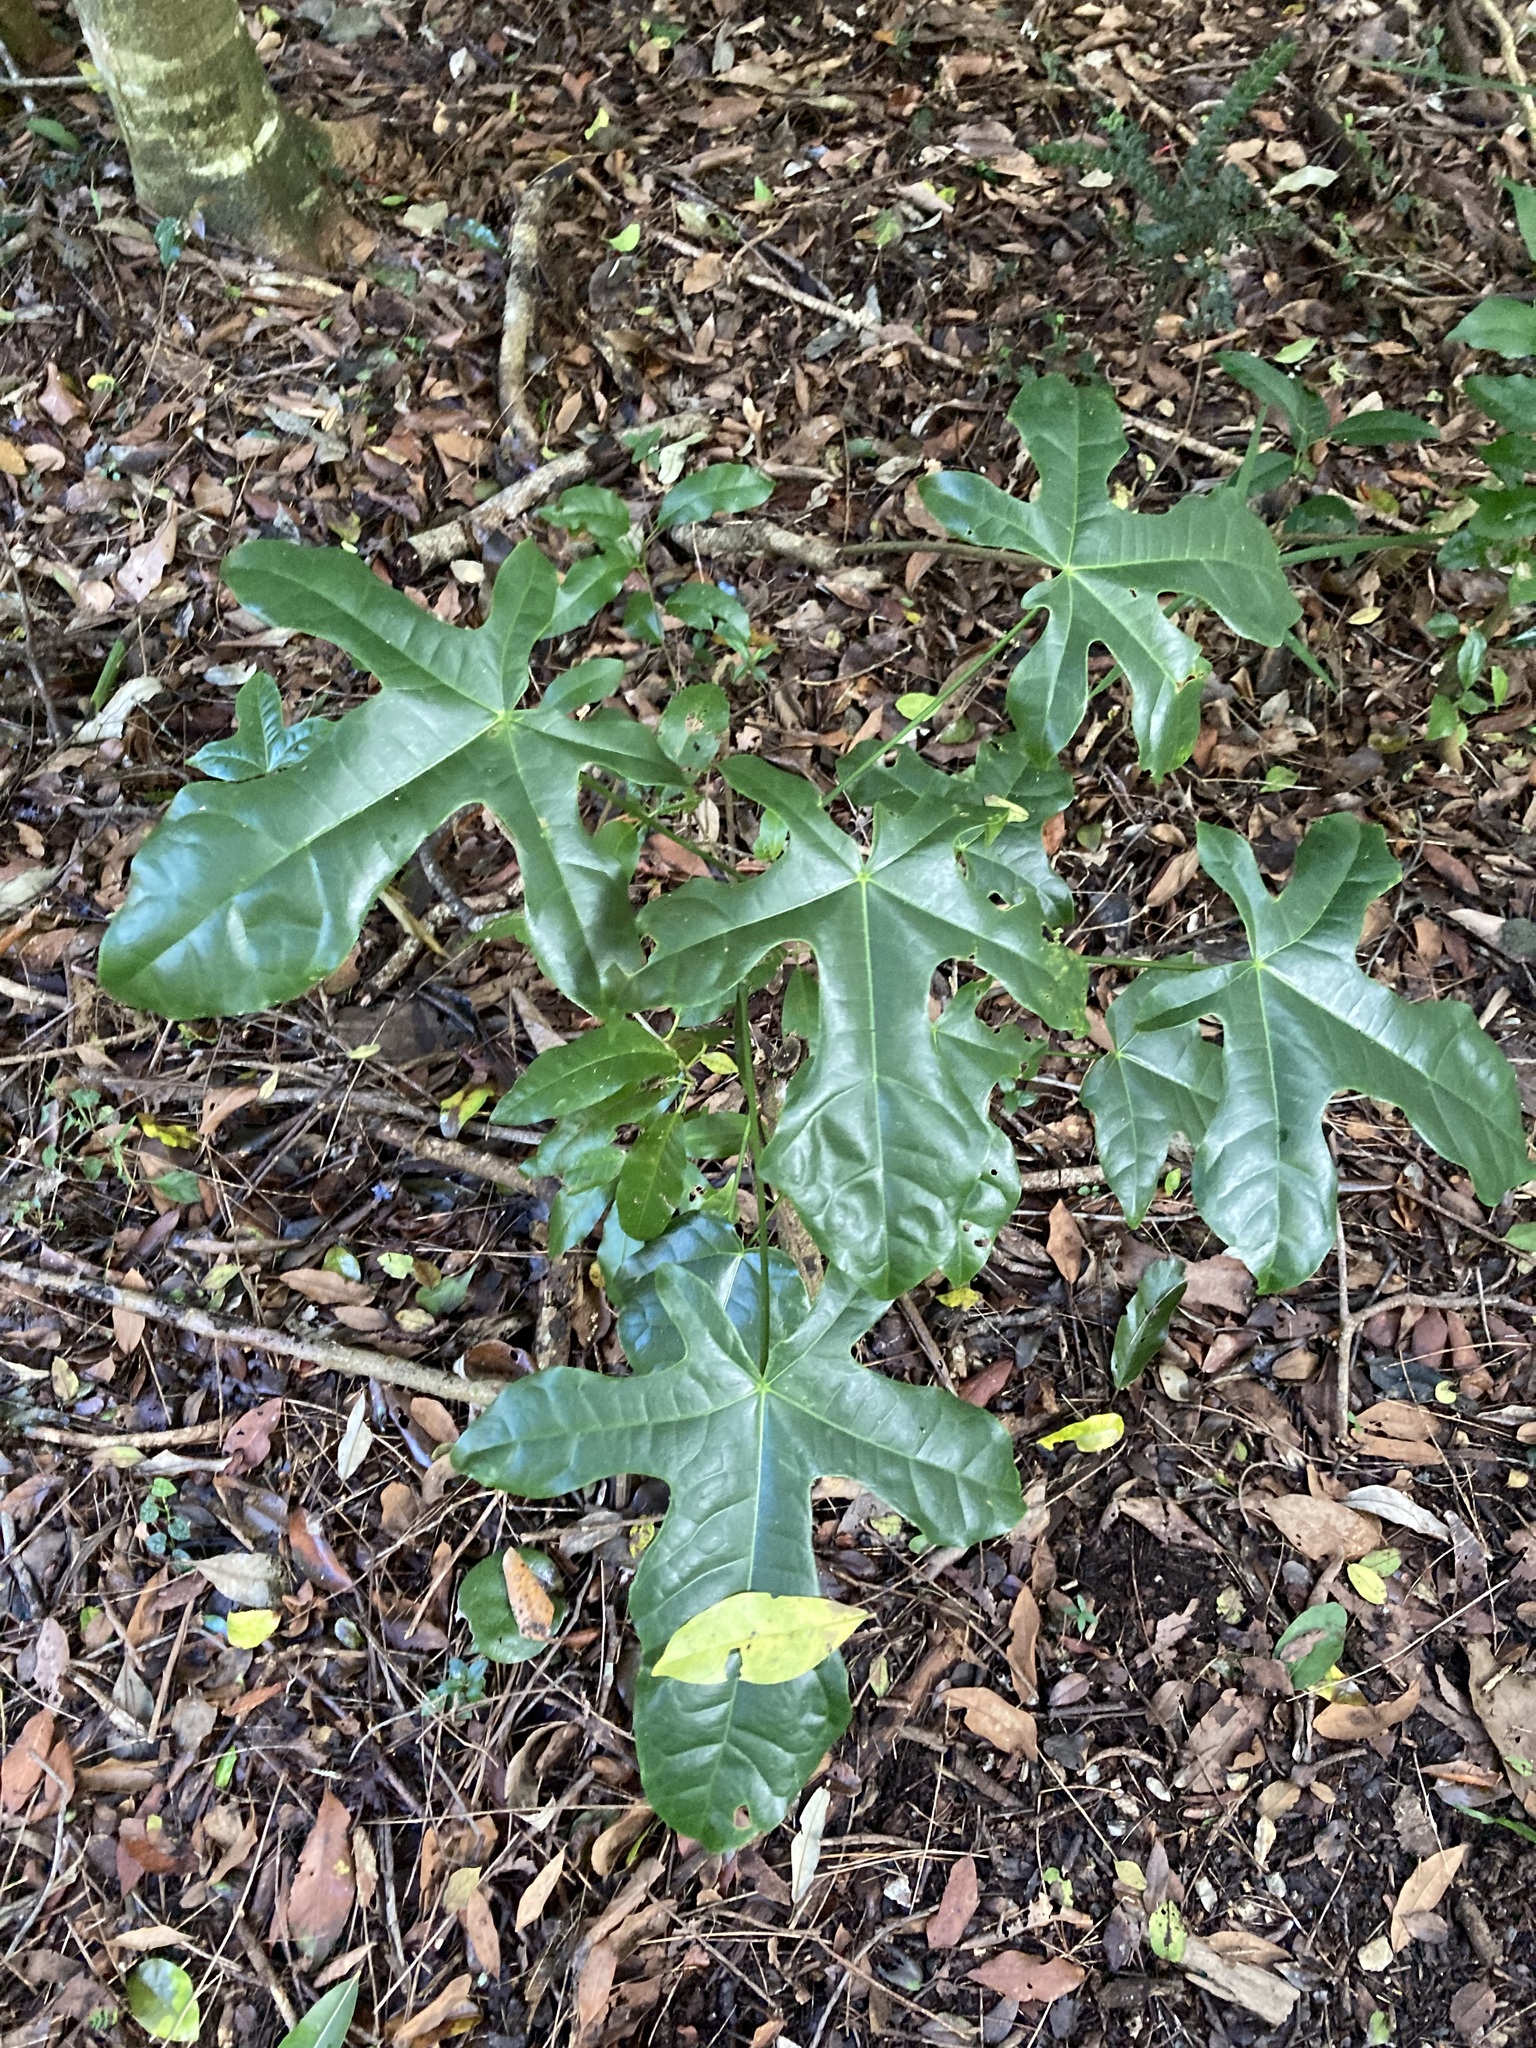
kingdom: Plantae
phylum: Tracheophyta
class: Magnoliopsida
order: Malvales
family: Malvaceae
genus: Brachychiton
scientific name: Brachychiton acerifolius
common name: Illawarra flame tree
